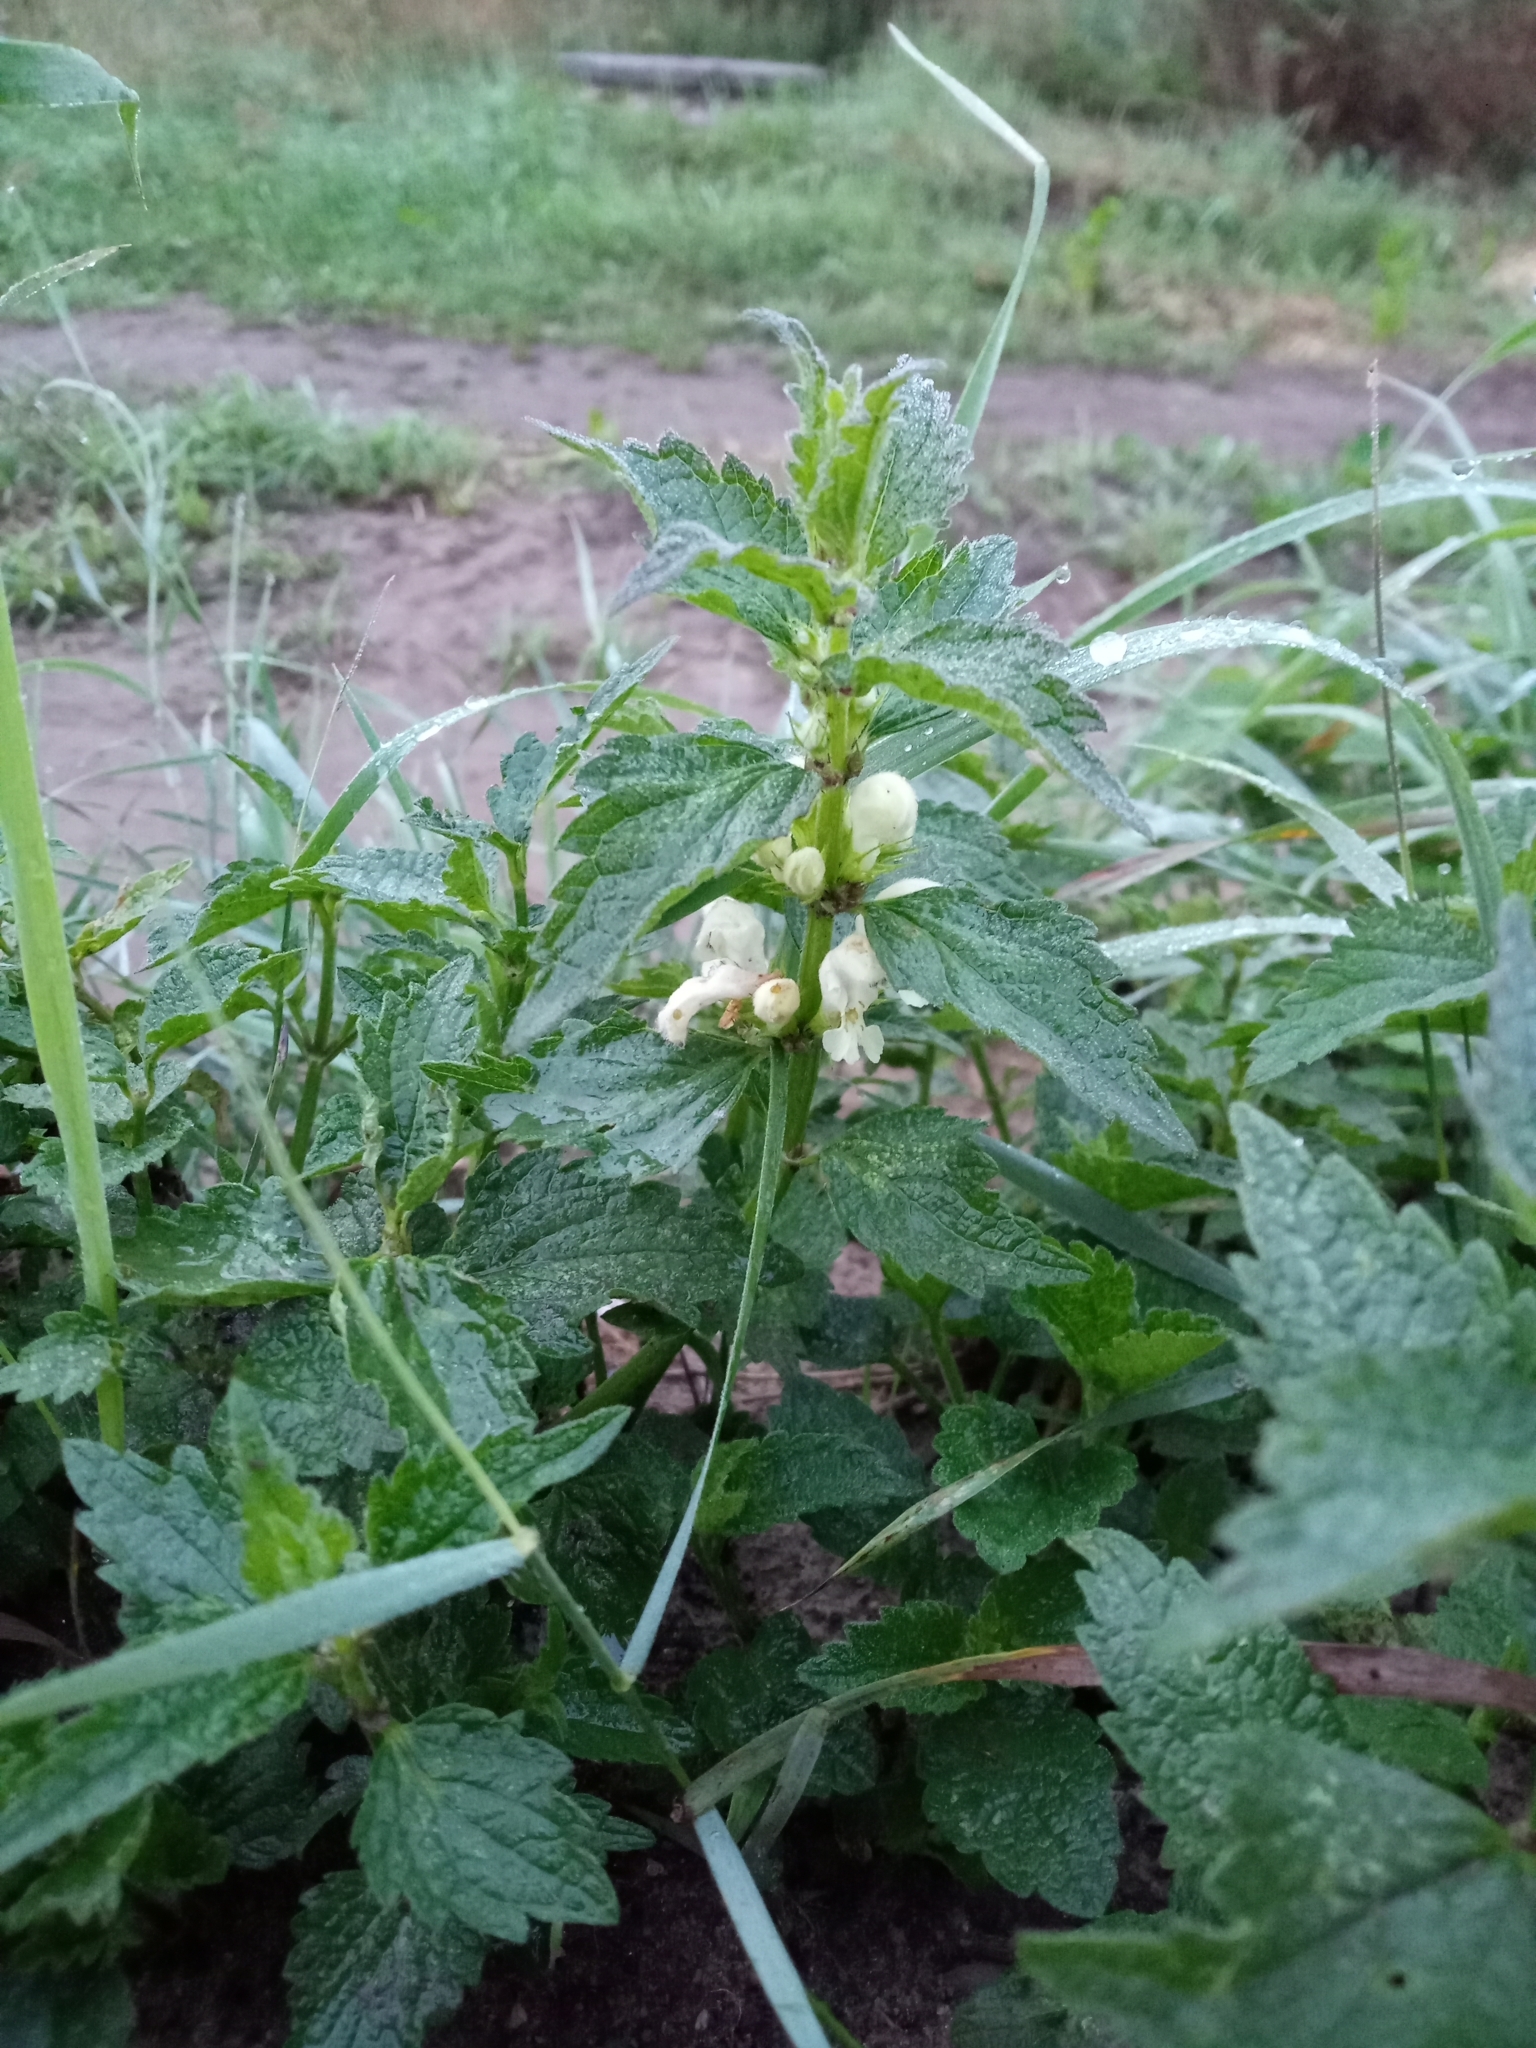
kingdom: Plantae
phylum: Tracheophyta
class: Magnoliopsida
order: Lamiales
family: Lamiaceae
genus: Lamium
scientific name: Lamium album
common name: White dead-nettle
